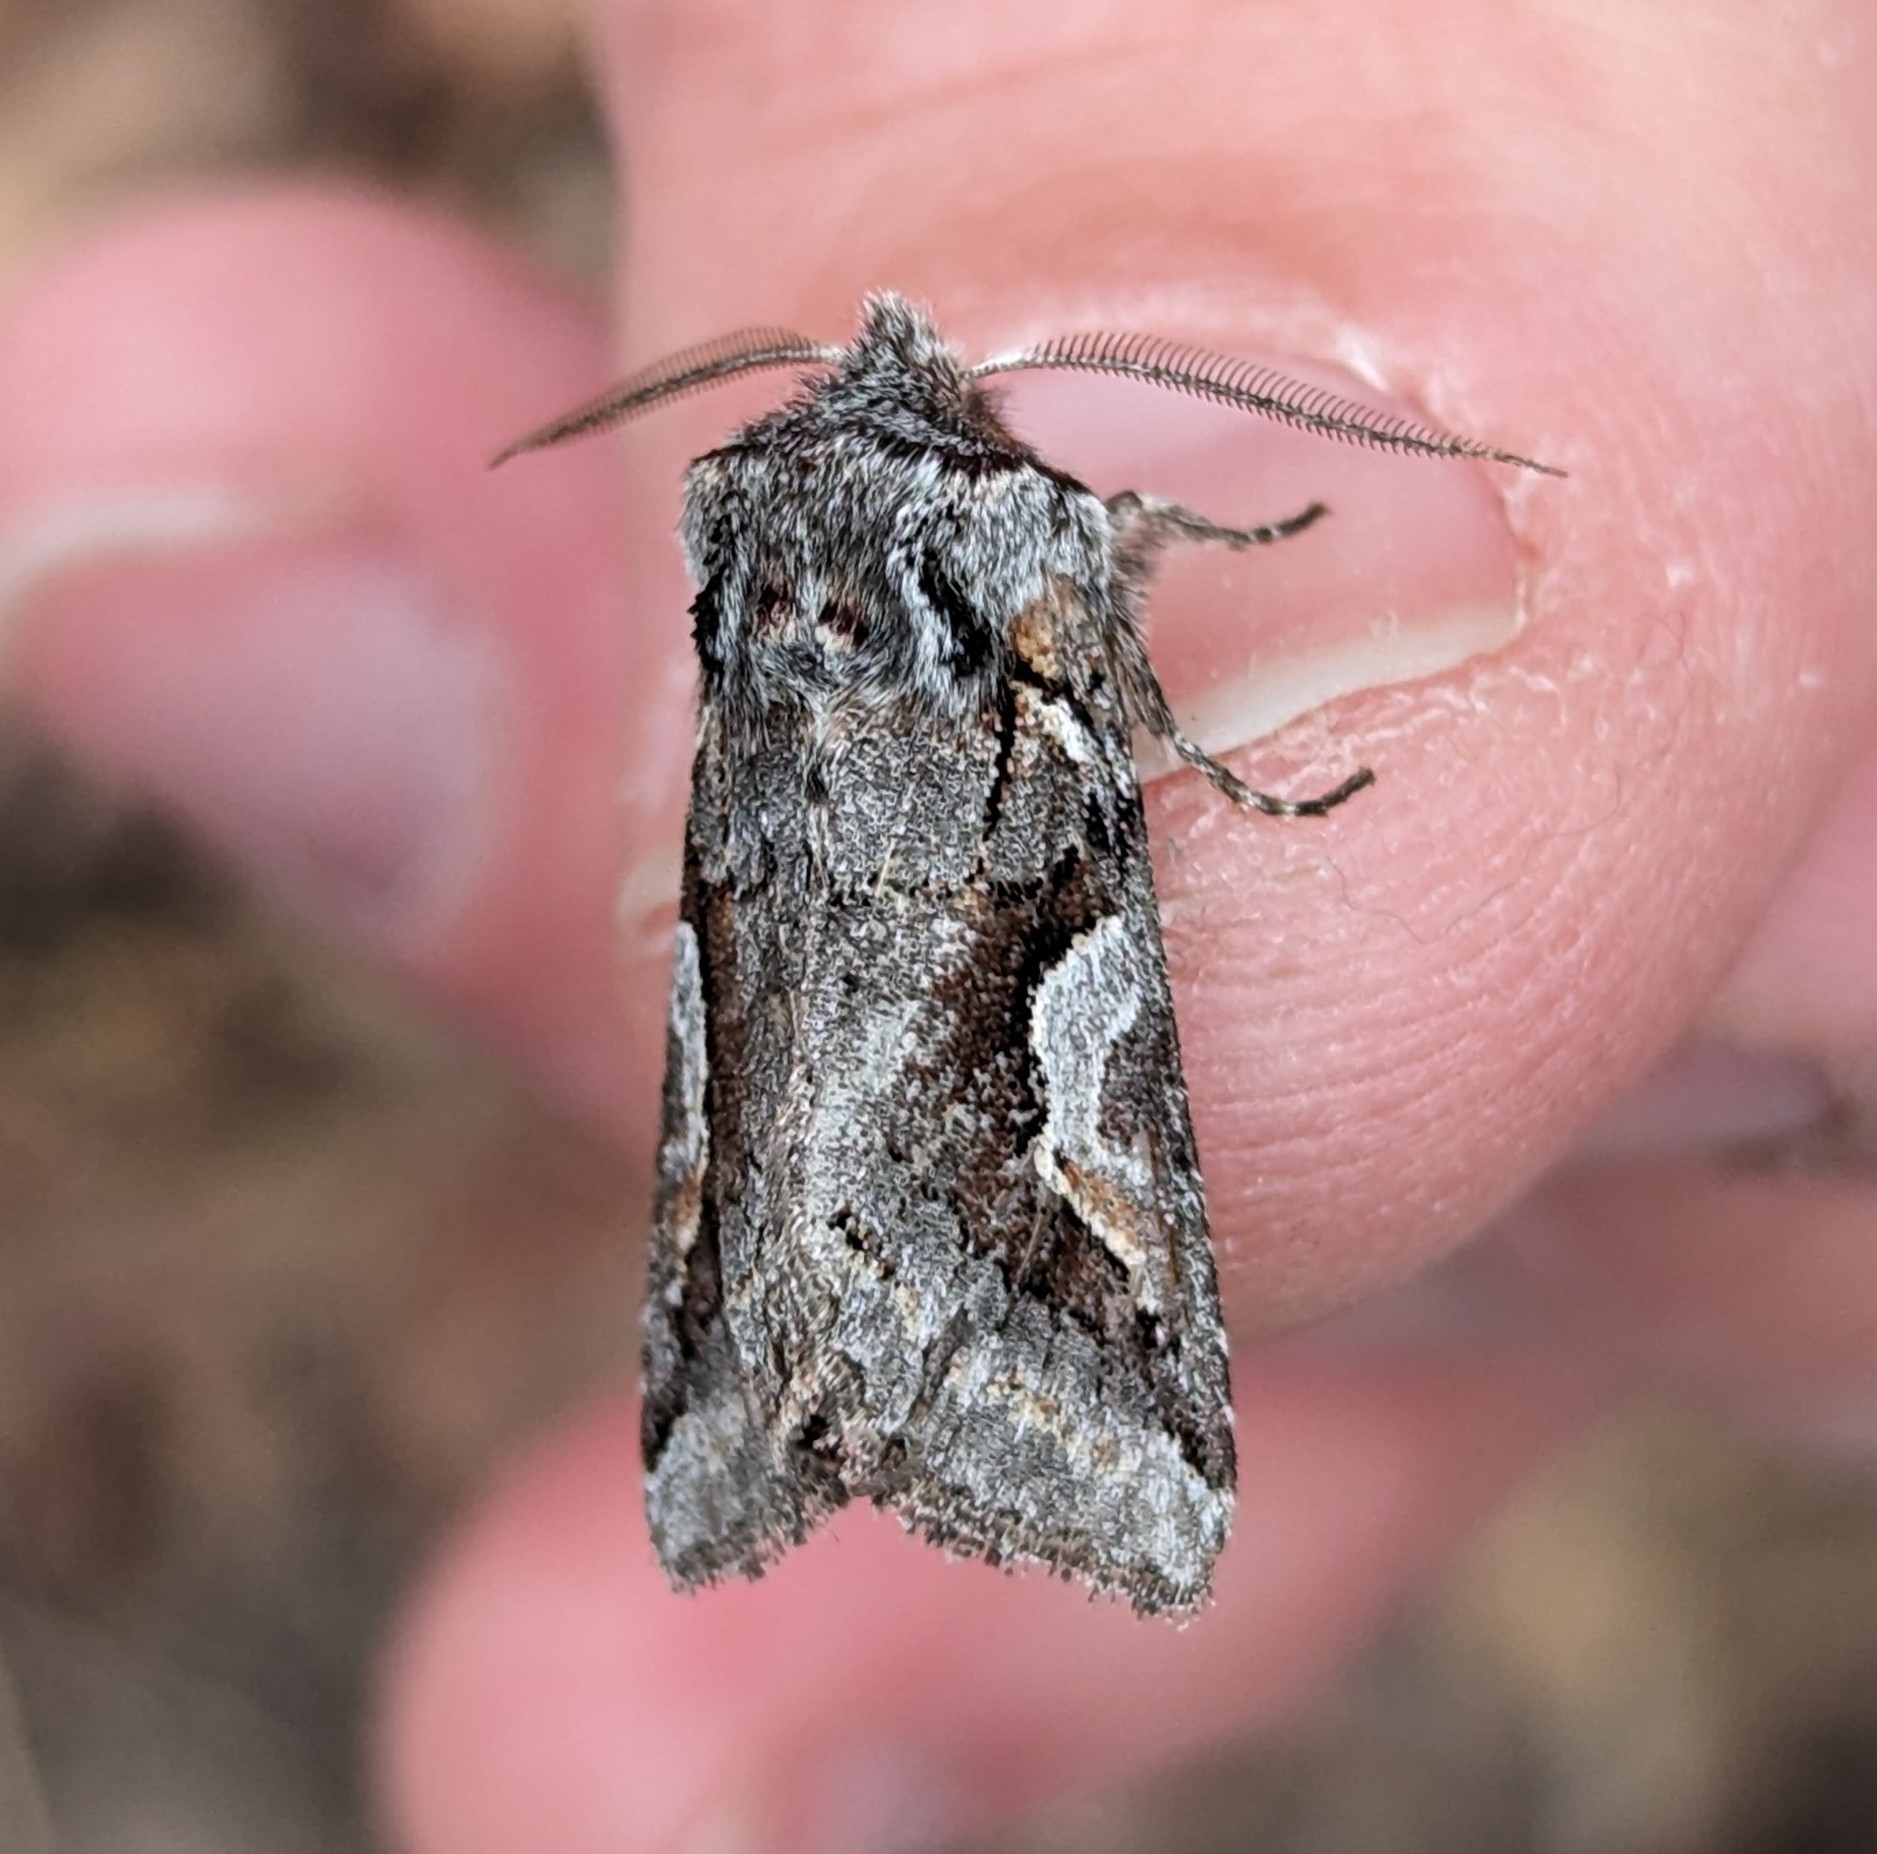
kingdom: Animalia
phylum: Arthropoda
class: Insecta
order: Lepidoptera
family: Noctuidae
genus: Stretchia
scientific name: Stretchia muricina
